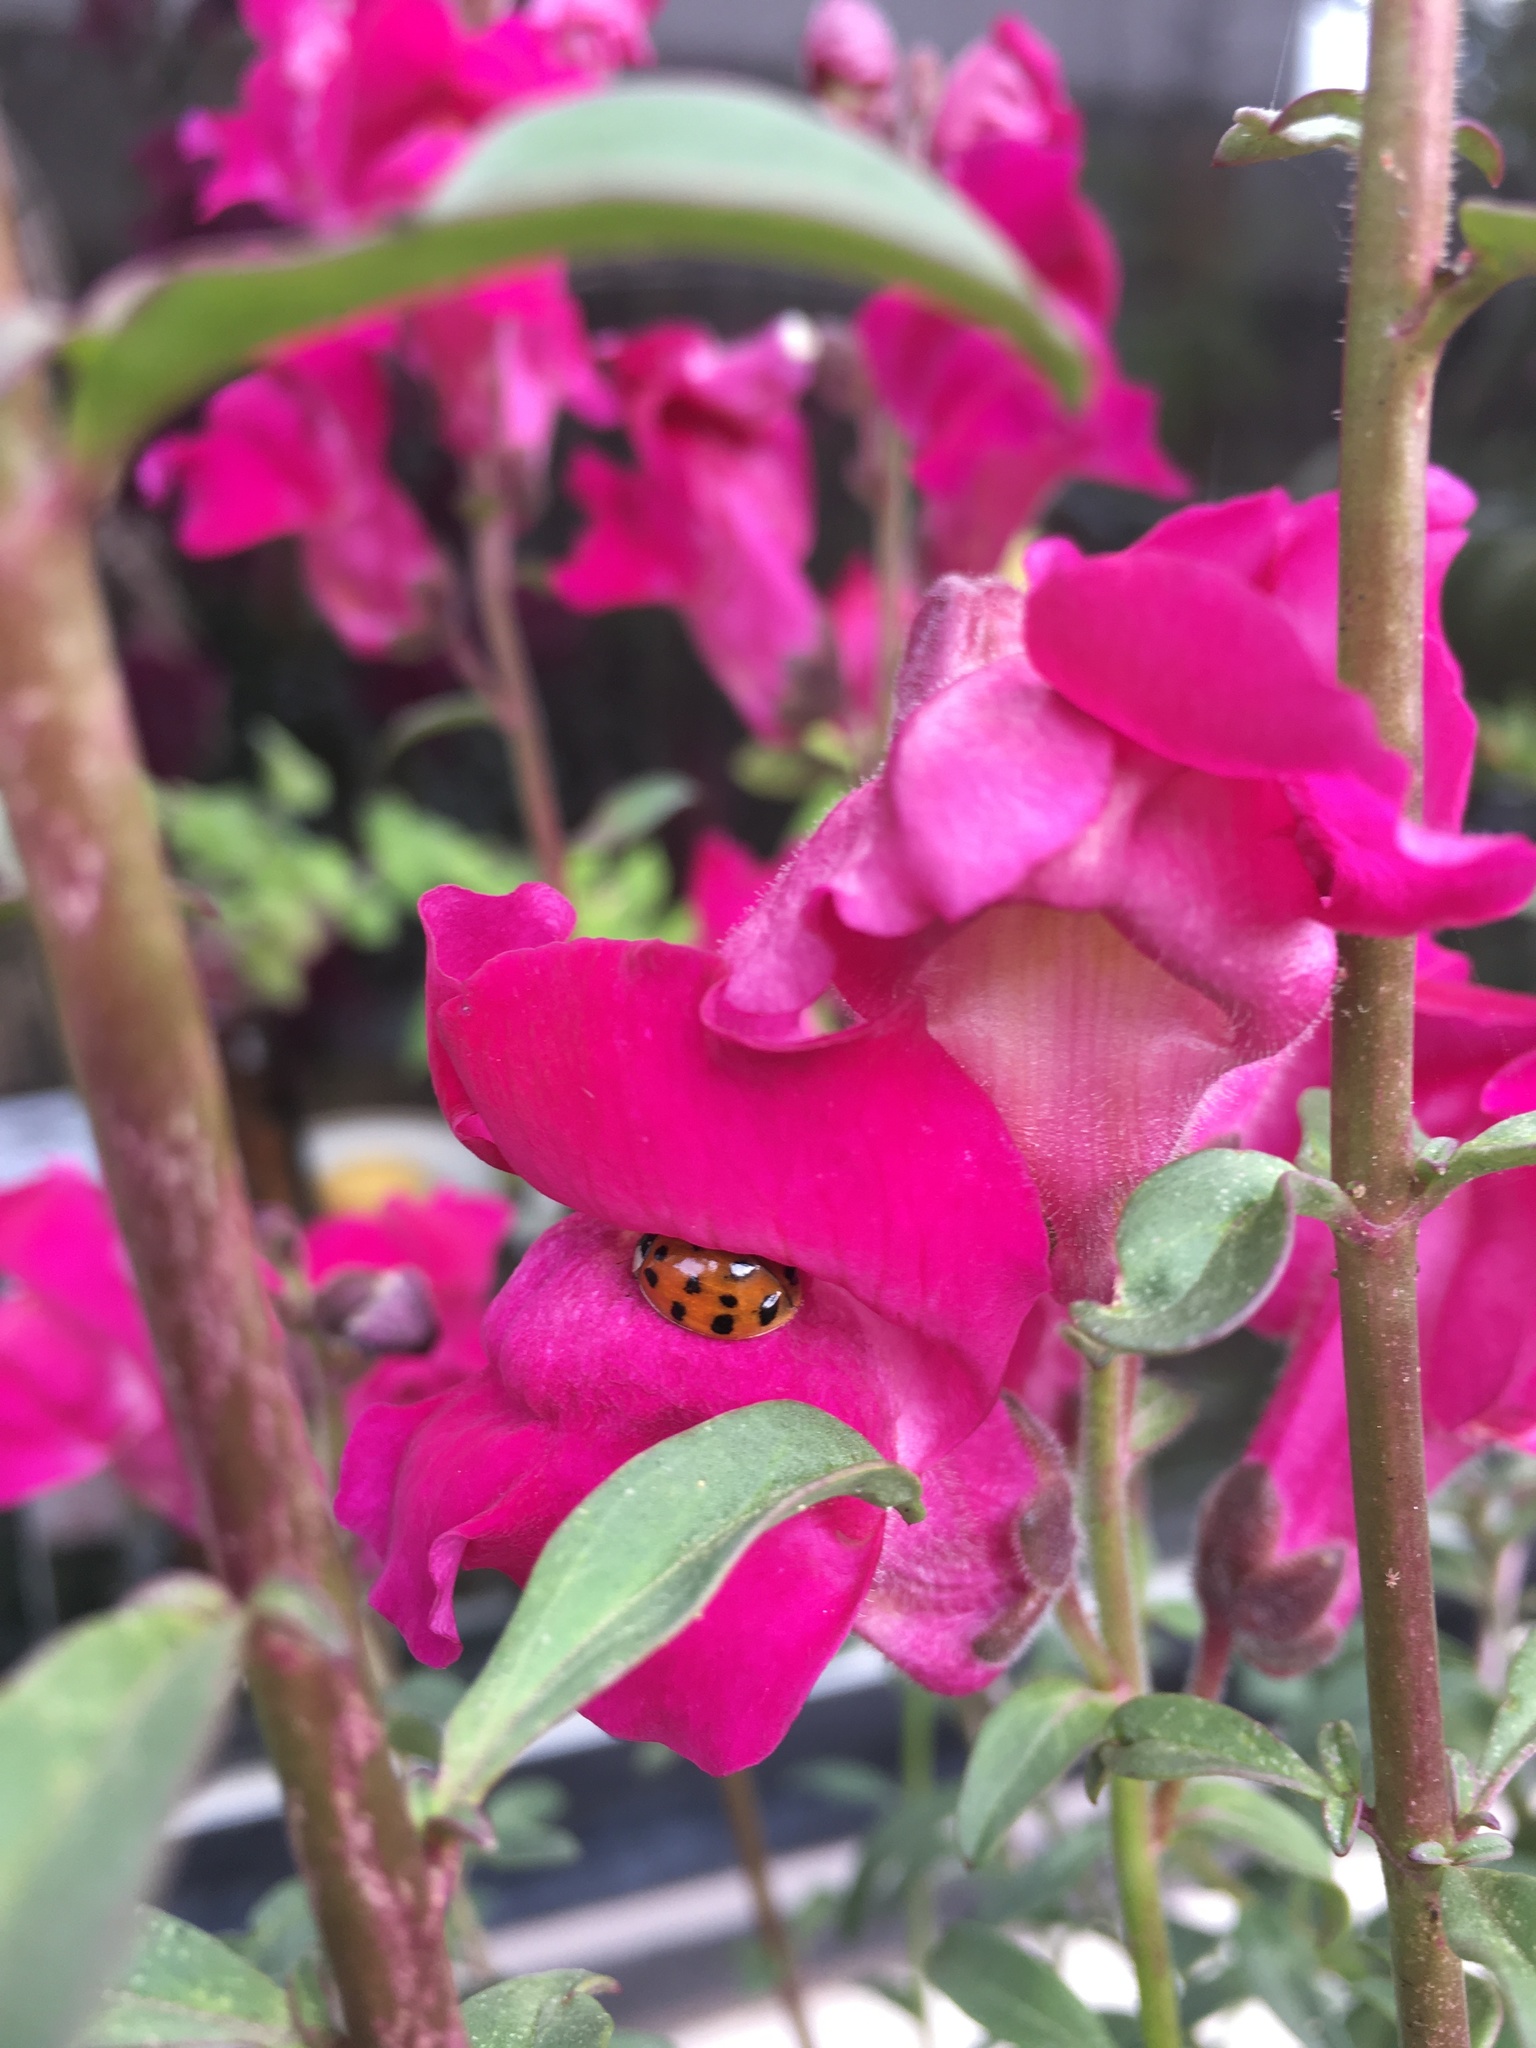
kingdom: Animalia
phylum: Arthropoda
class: Insecta
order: Coleoptera
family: Coccinellidae
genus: Harmonia
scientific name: Harmonia axyridis
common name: Harlequin ladybird
